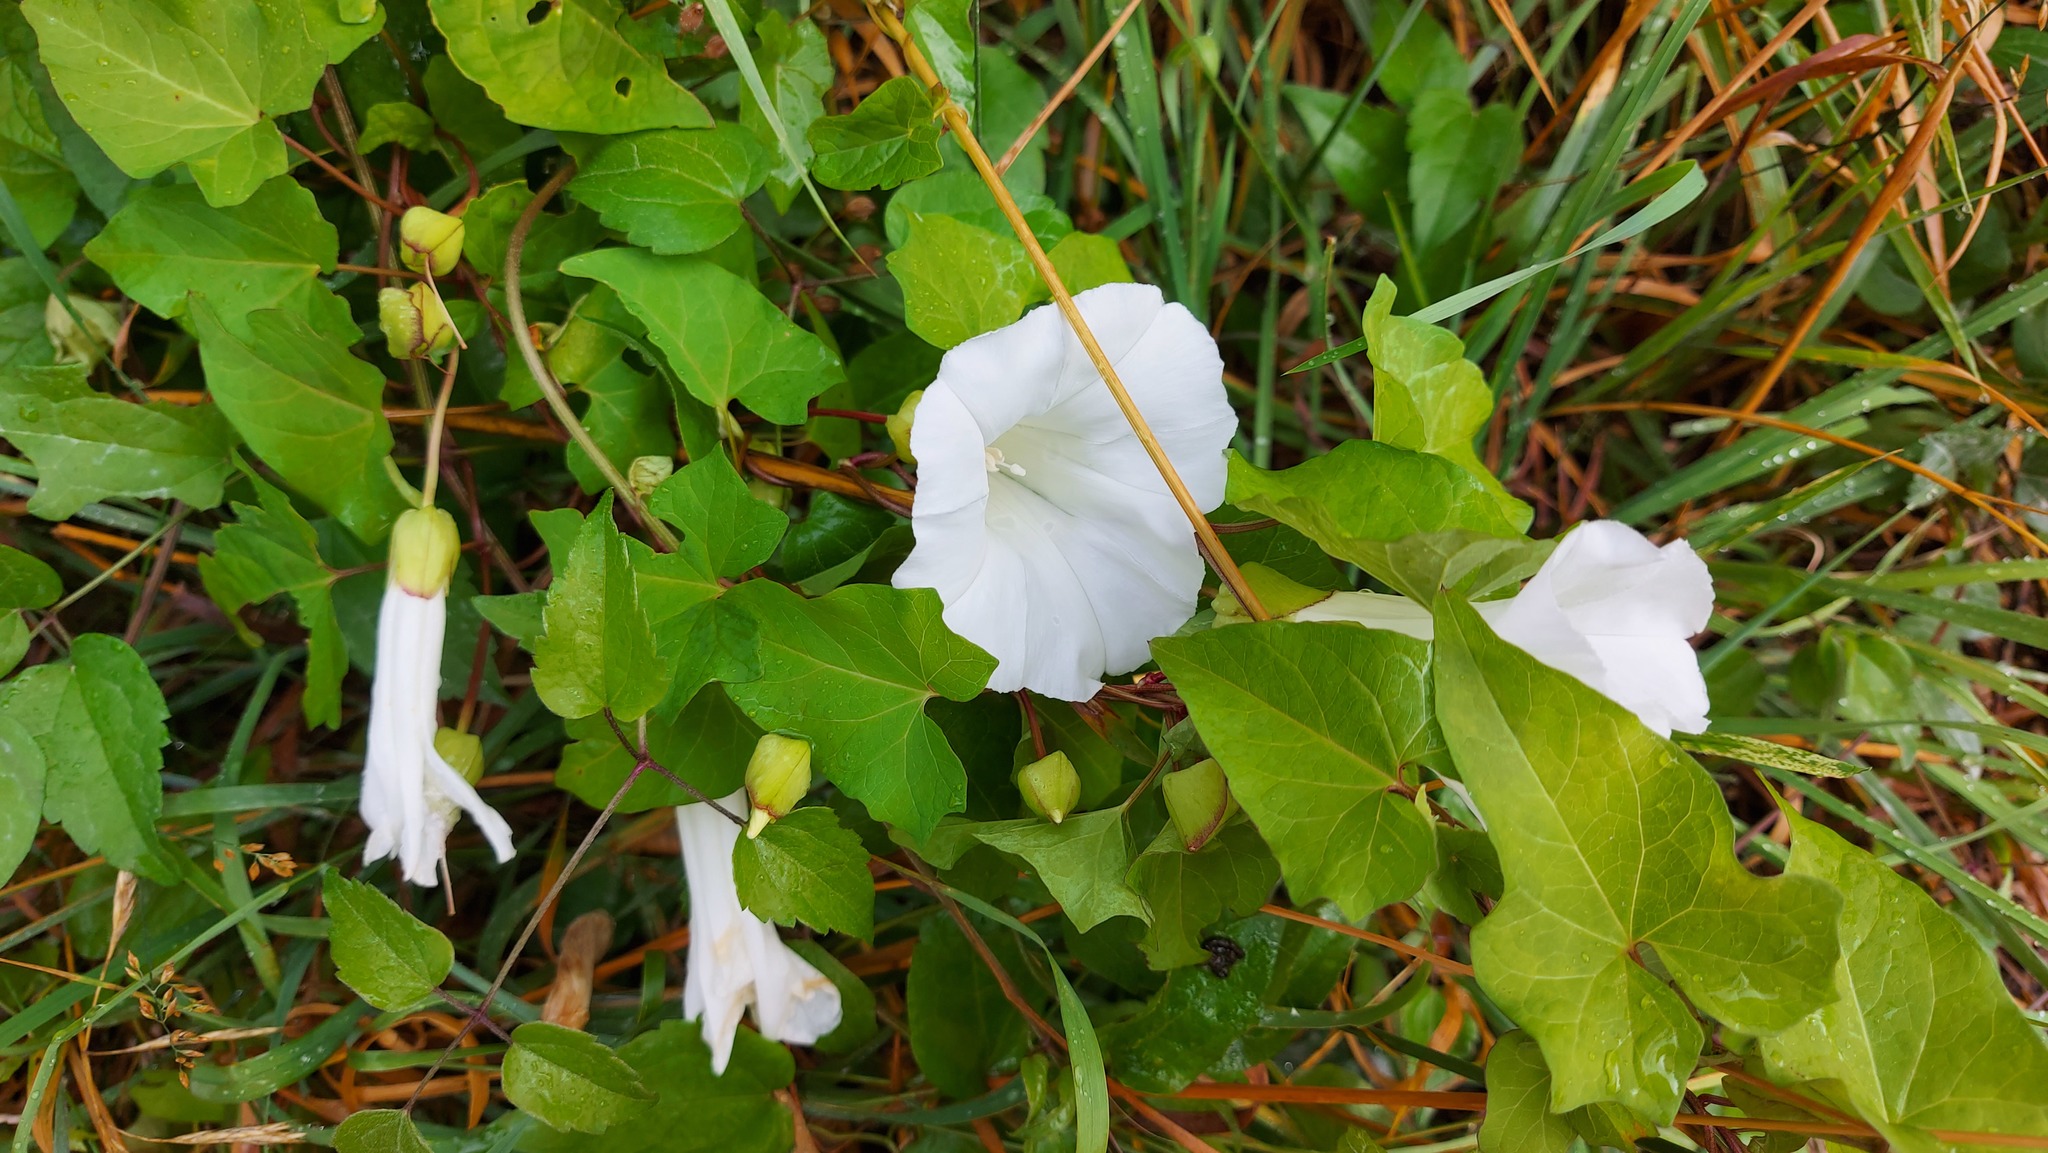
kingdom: Plantae
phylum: Tracheophyta
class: Magnoliopsida
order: Solanales
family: Convolvulaceae
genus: Calystegia
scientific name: Calystegia silvatica
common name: Large bindweed
